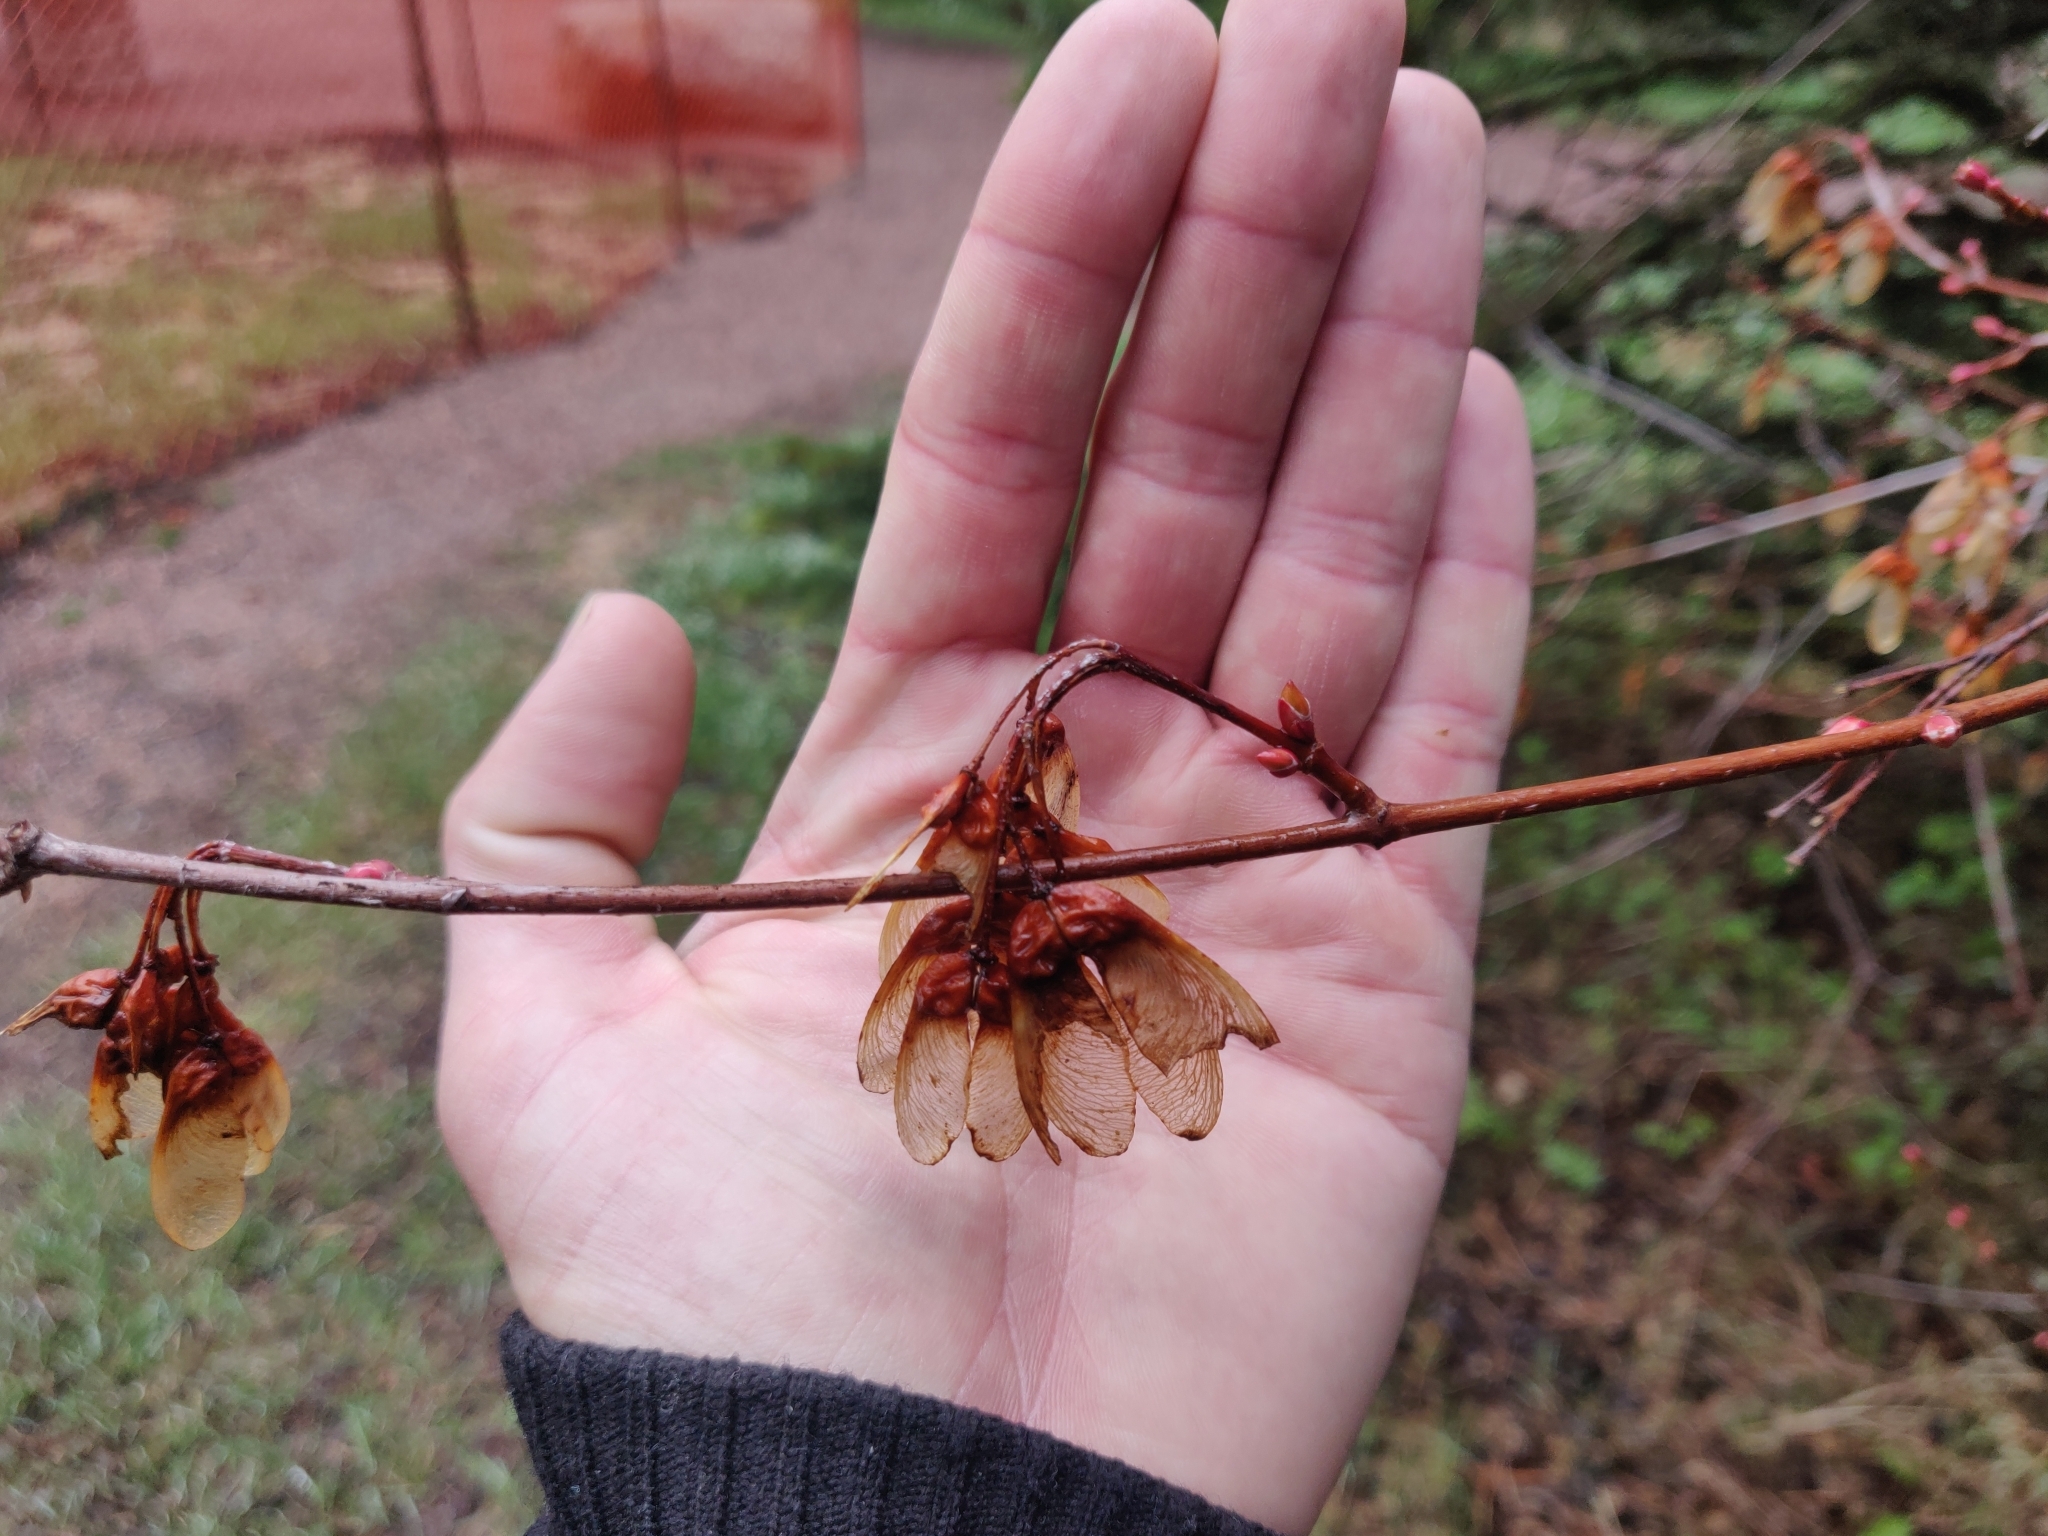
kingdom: Plantae
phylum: Tracheophyta
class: Magnoliopsida
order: Sapindales
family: Sapindaceae
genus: Acer
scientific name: Acer glabrum
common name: Rocky mountain maple
